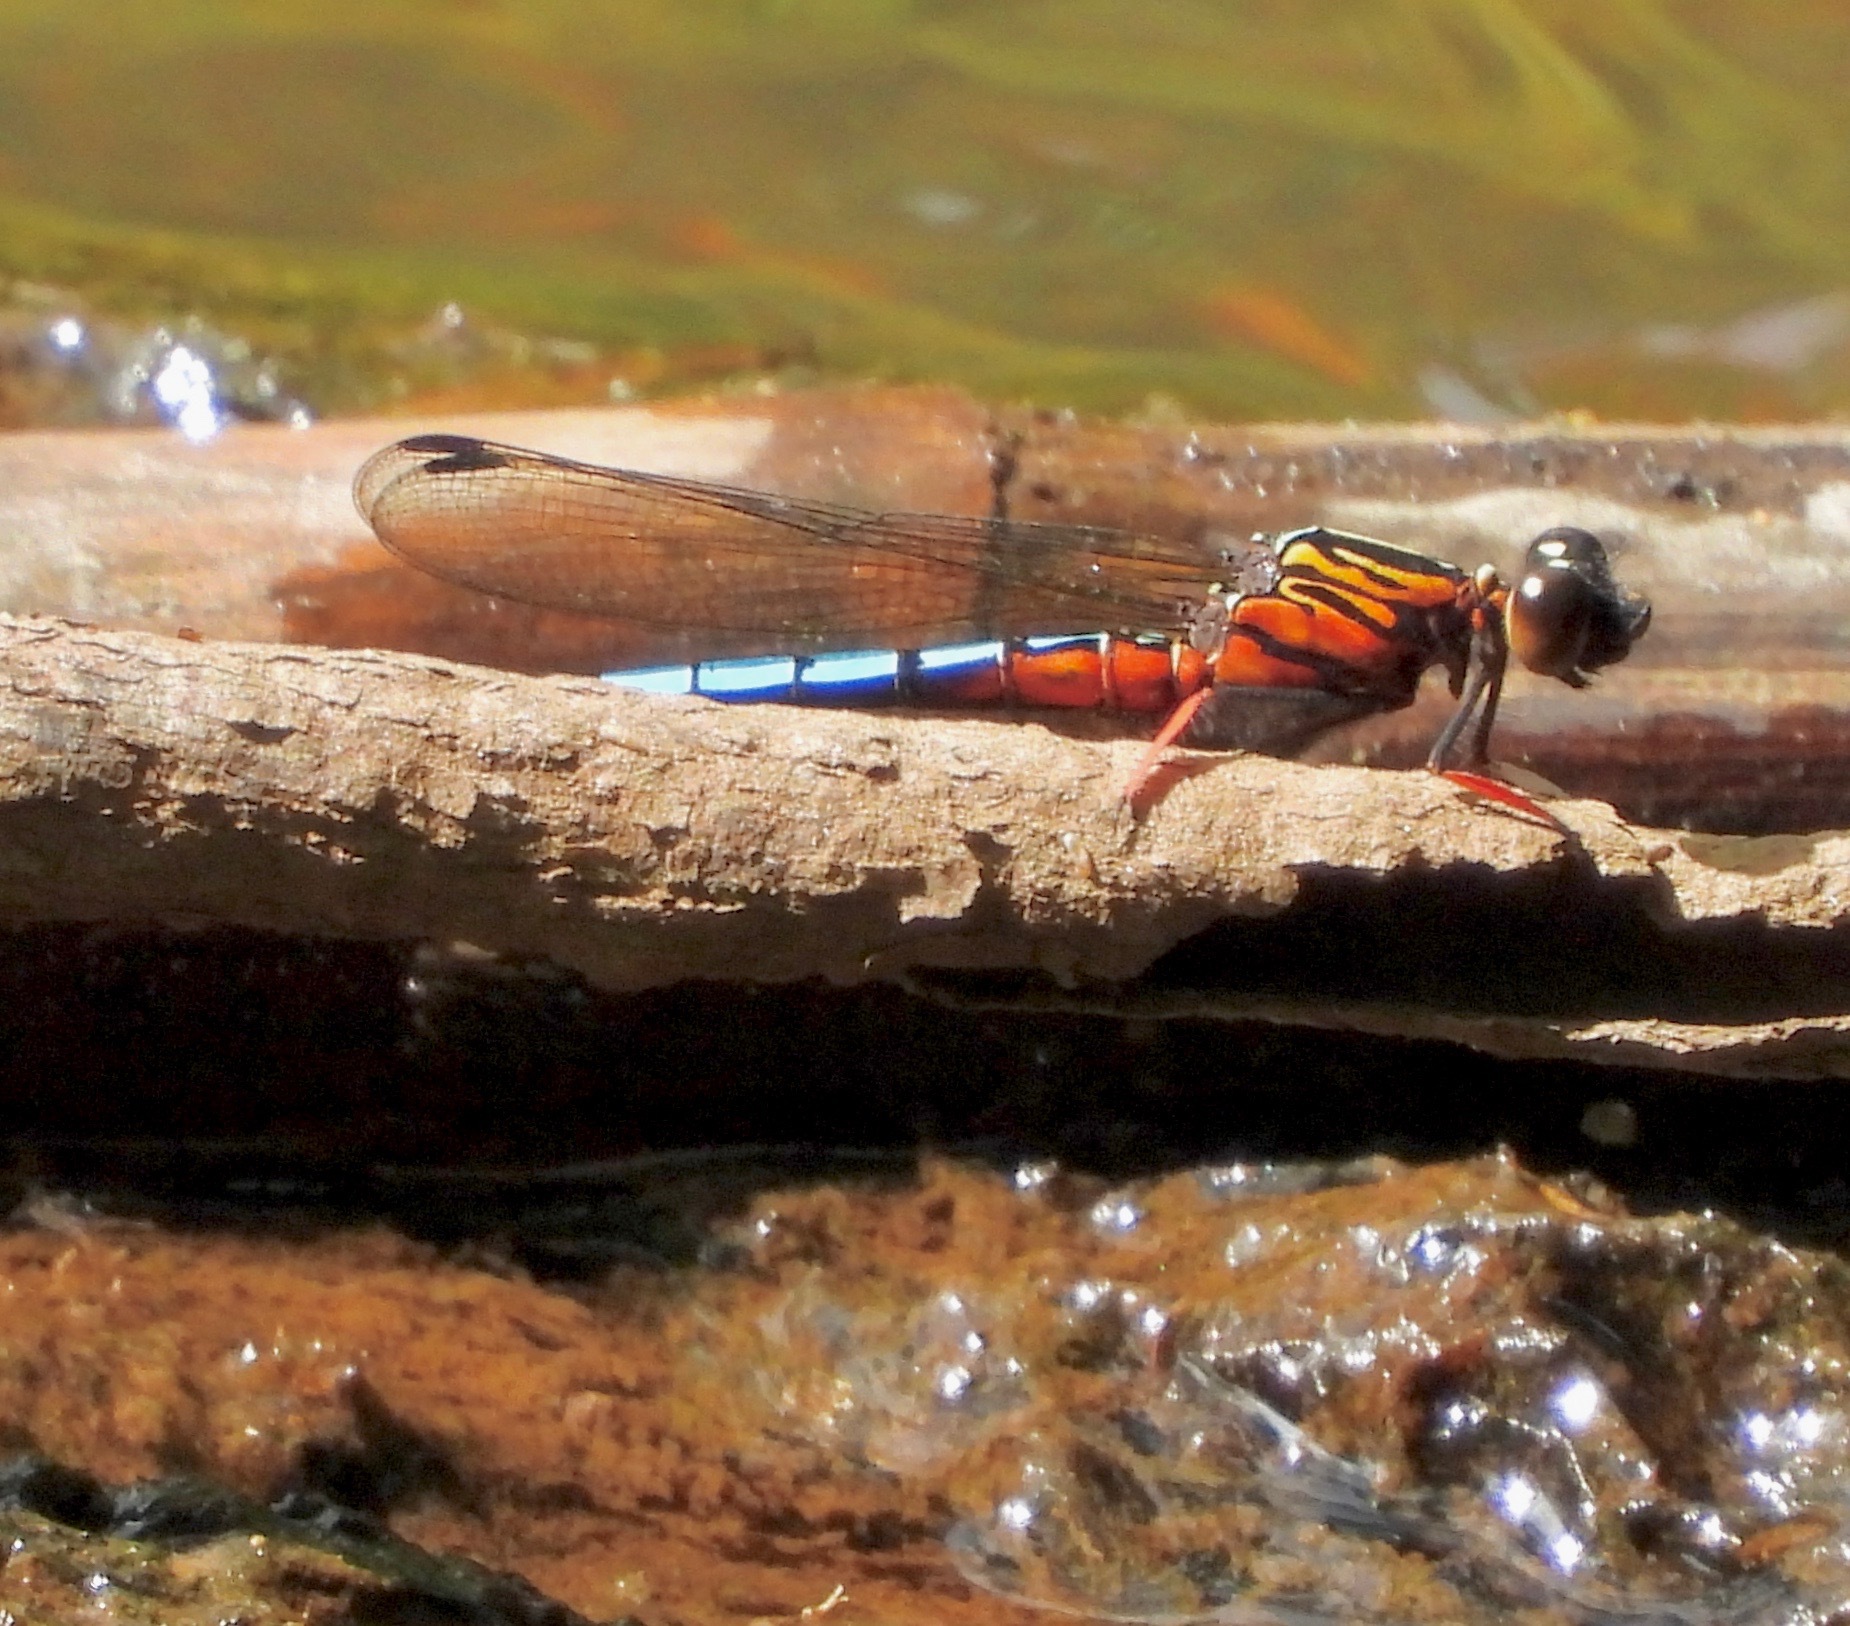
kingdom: Animalia
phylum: Arthropoda
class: Insecta
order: Odonata
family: Chlorocyphidae
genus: Platycypha
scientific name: Platycypha caligata
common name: Dancing jewel
